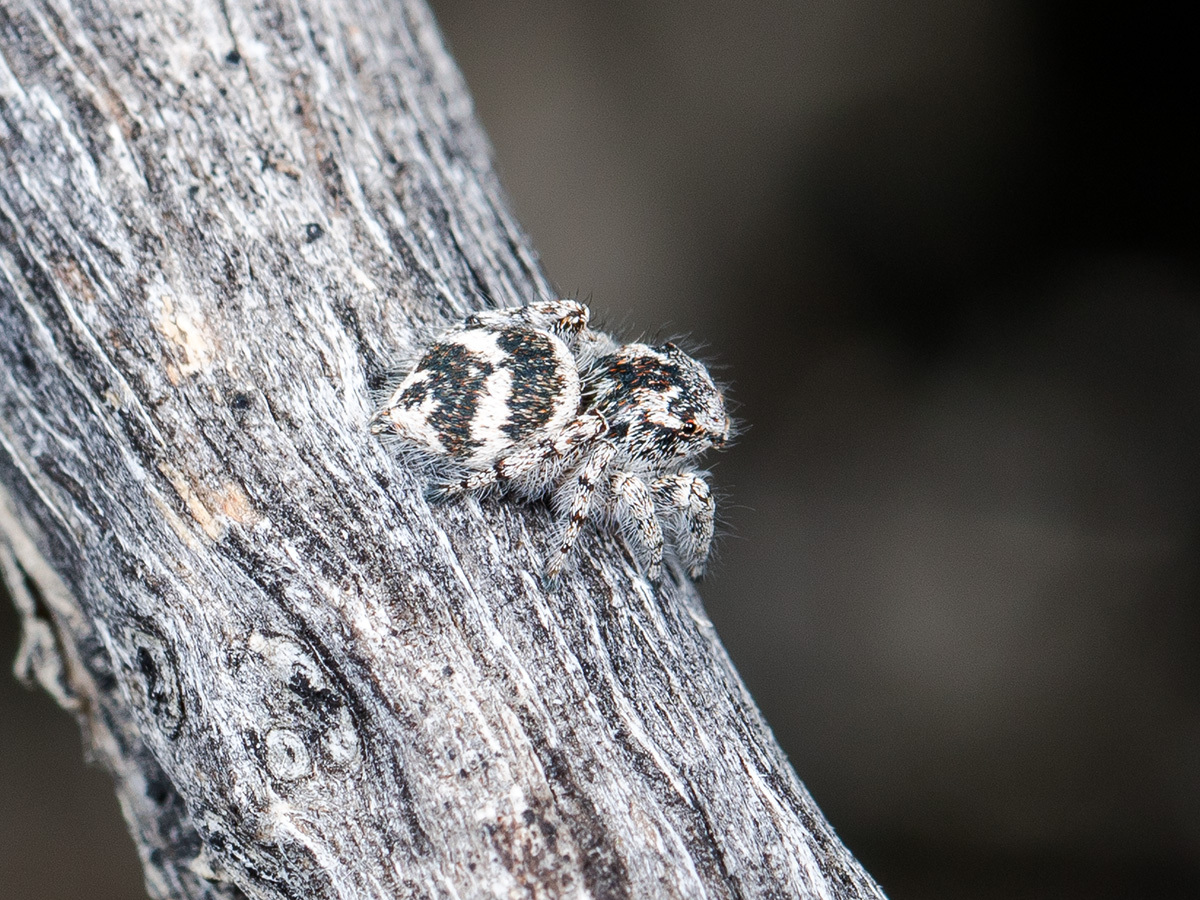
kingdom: Animalia
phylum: Arthropoda
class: Arachnida
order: Araneae
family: Salticidae
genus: Pseudomogrus
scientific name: Pseudomogrus albocinctus
